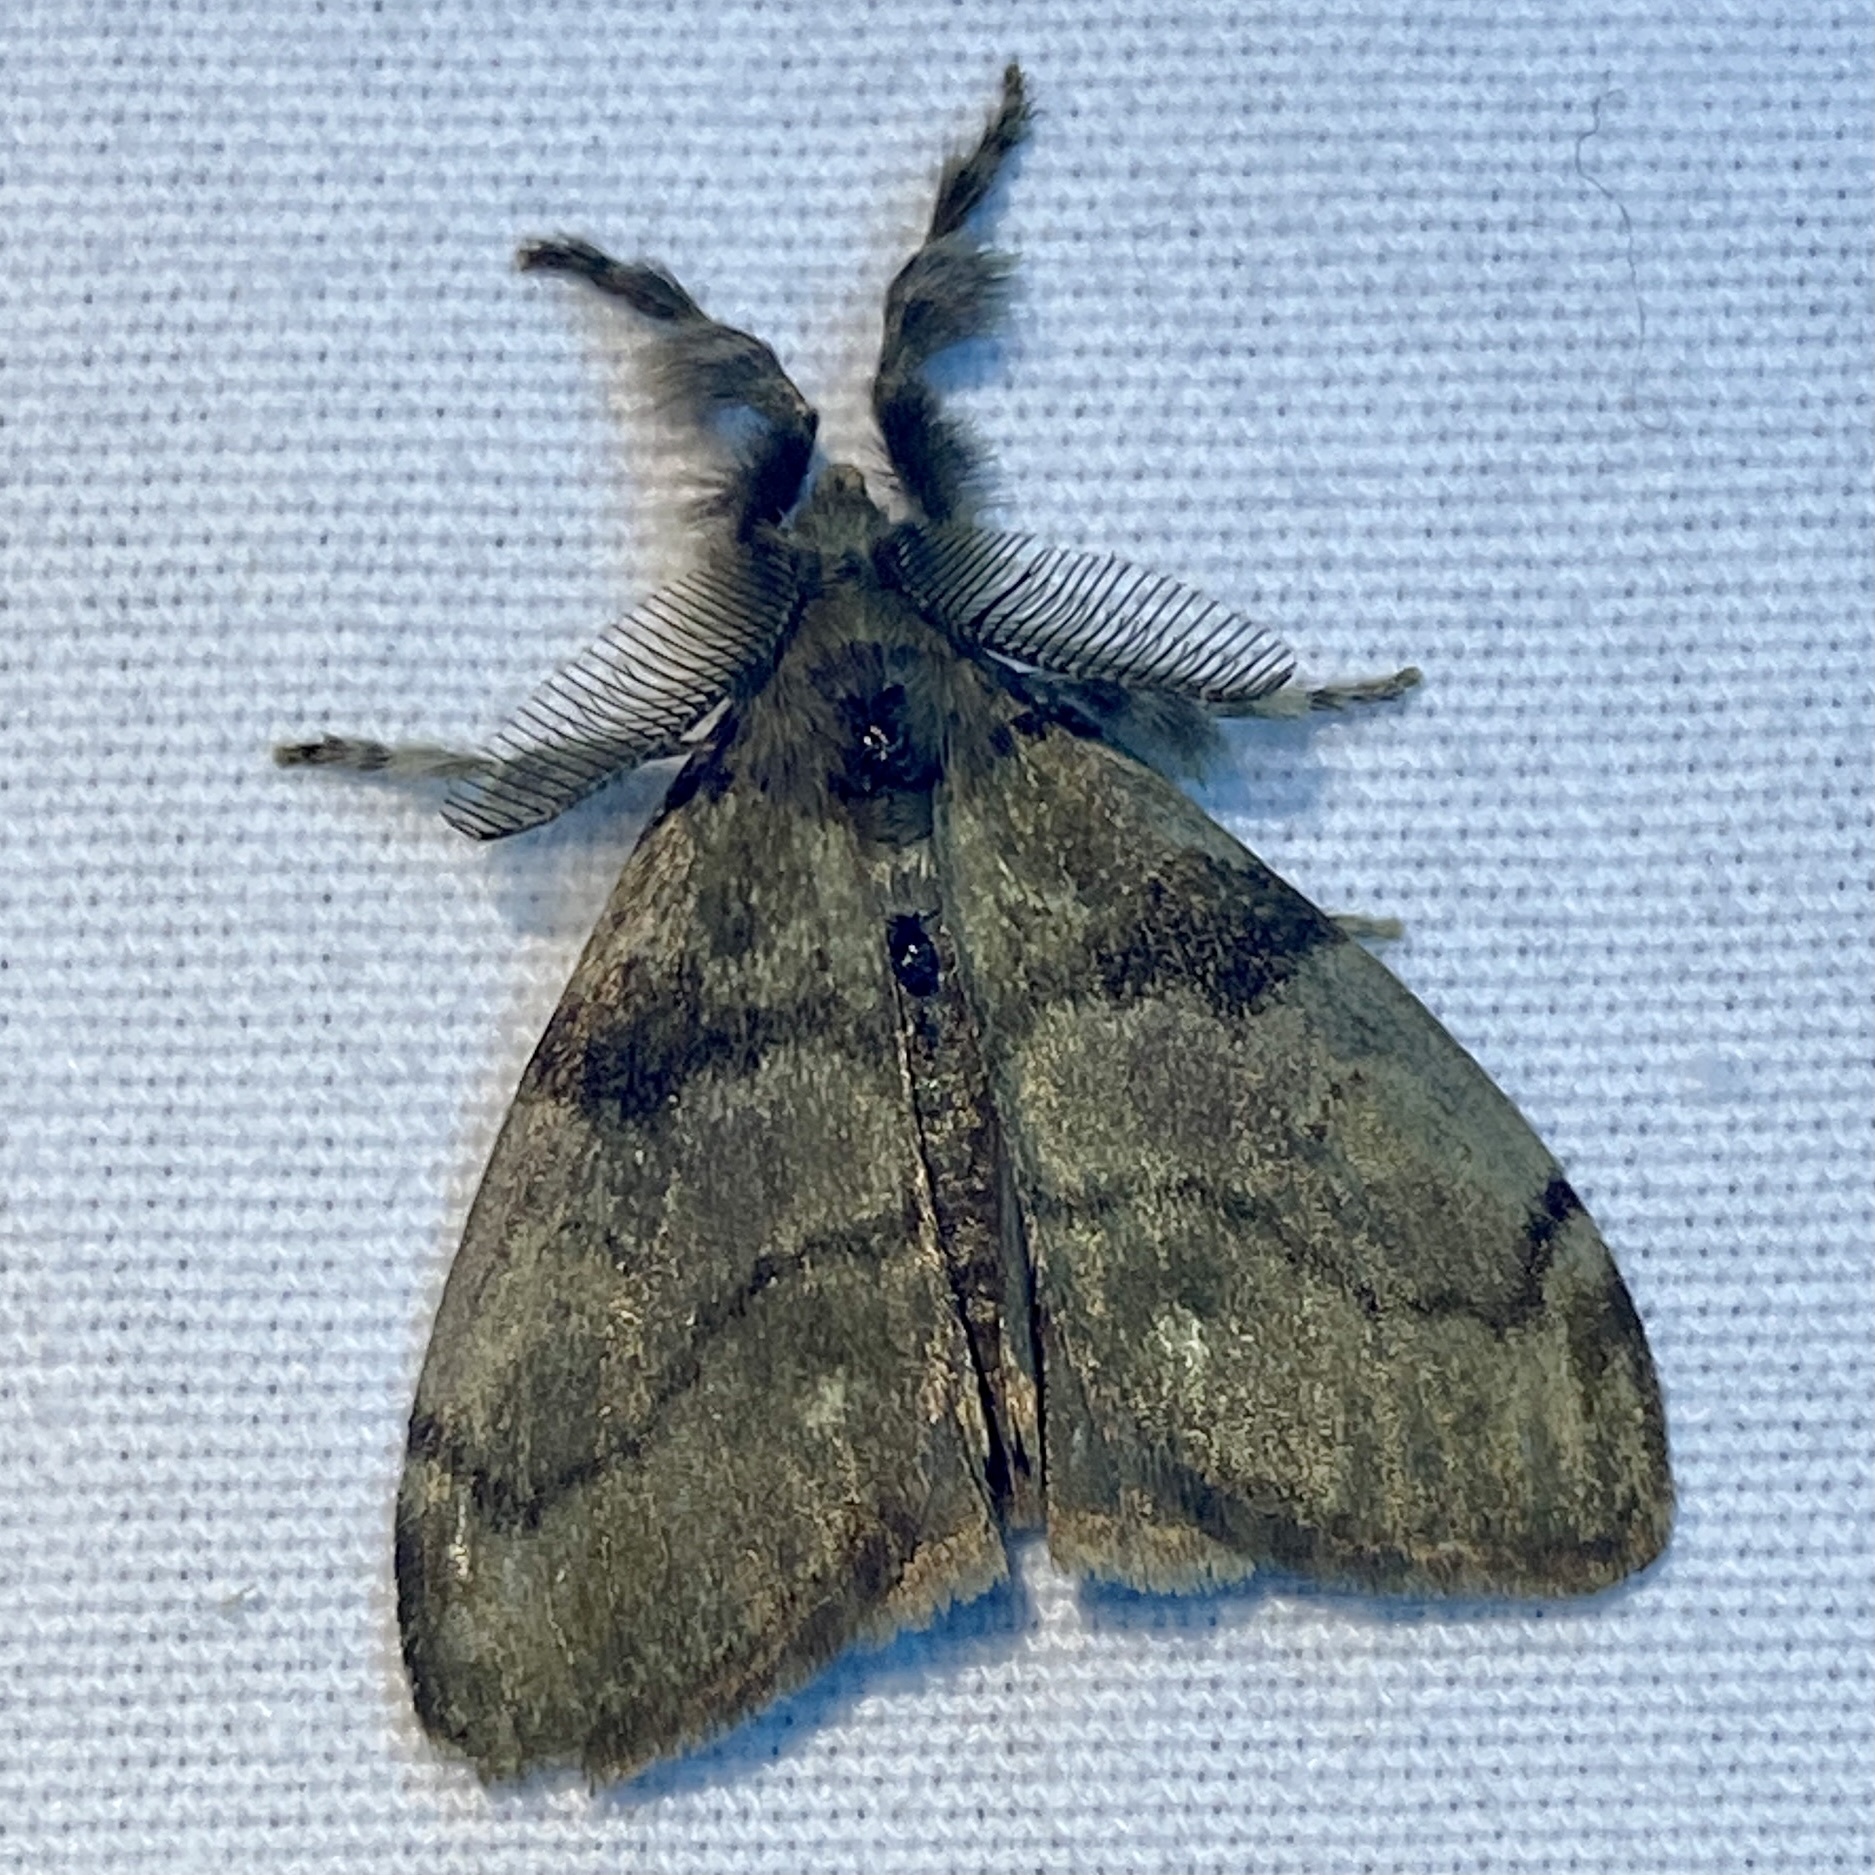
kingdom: Animalia
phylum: Arthropoda
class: Insecta
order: Lepidoptera
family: Erebidae
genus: Orgyia
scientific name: Orgyia leucostigma
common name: White-marked tussock moth
